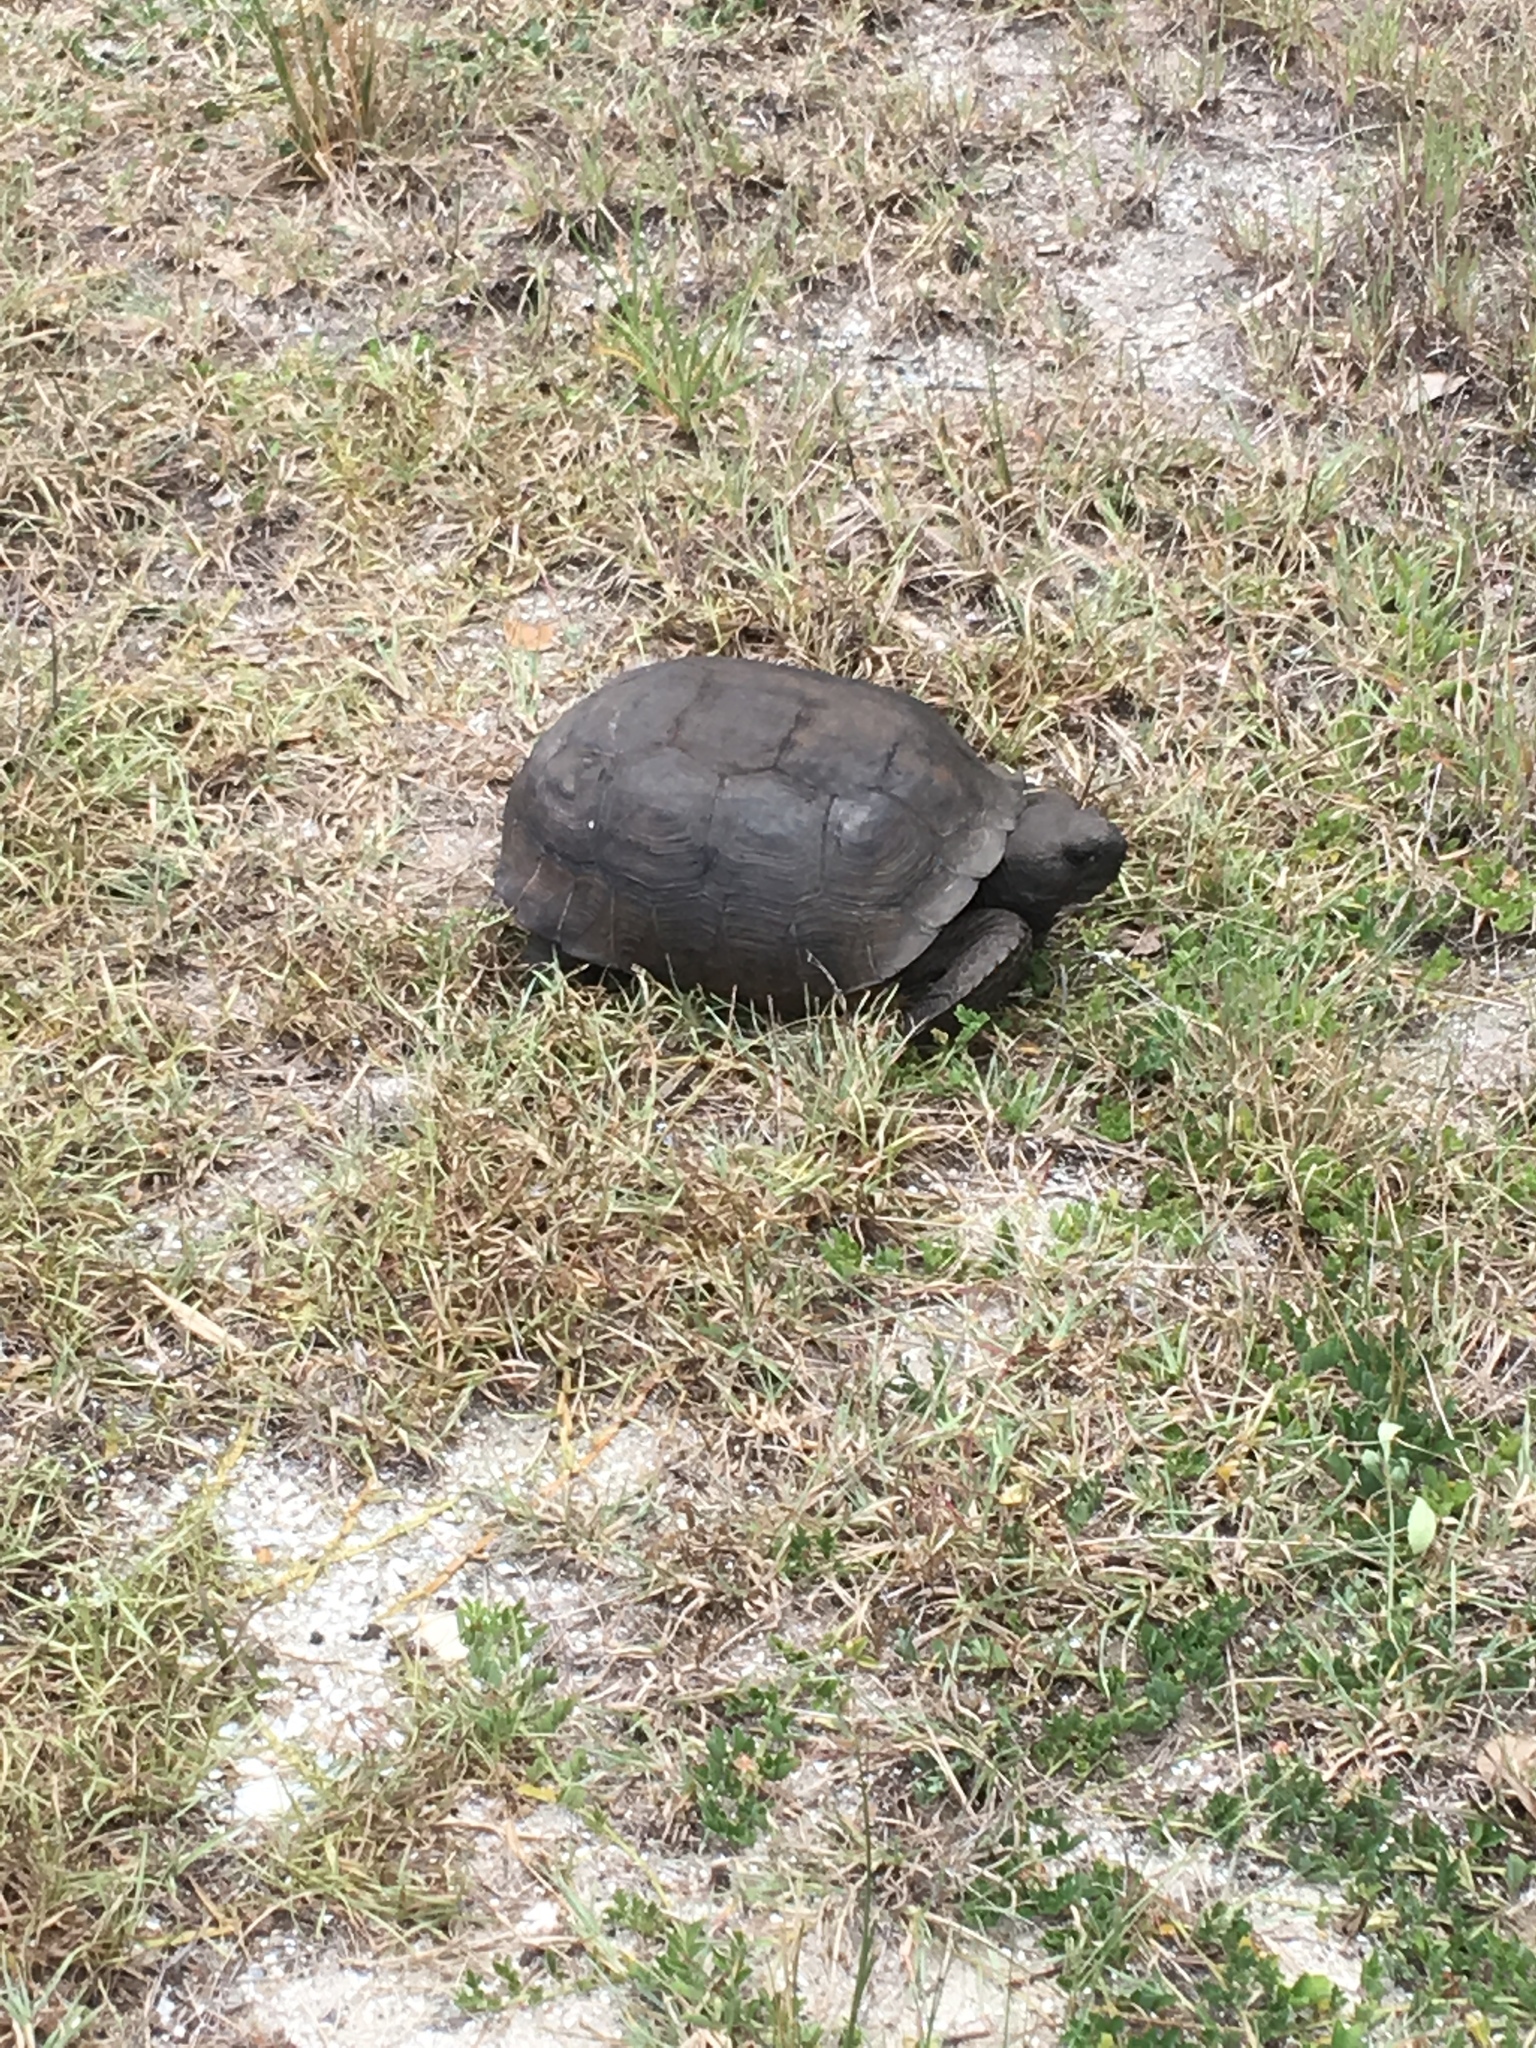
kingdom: Animalia
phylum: Chordata
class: Testudines
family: Testudinidae
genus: Gopherus
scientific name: Gopherus polyphemus
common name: Florida gopher tortoise
